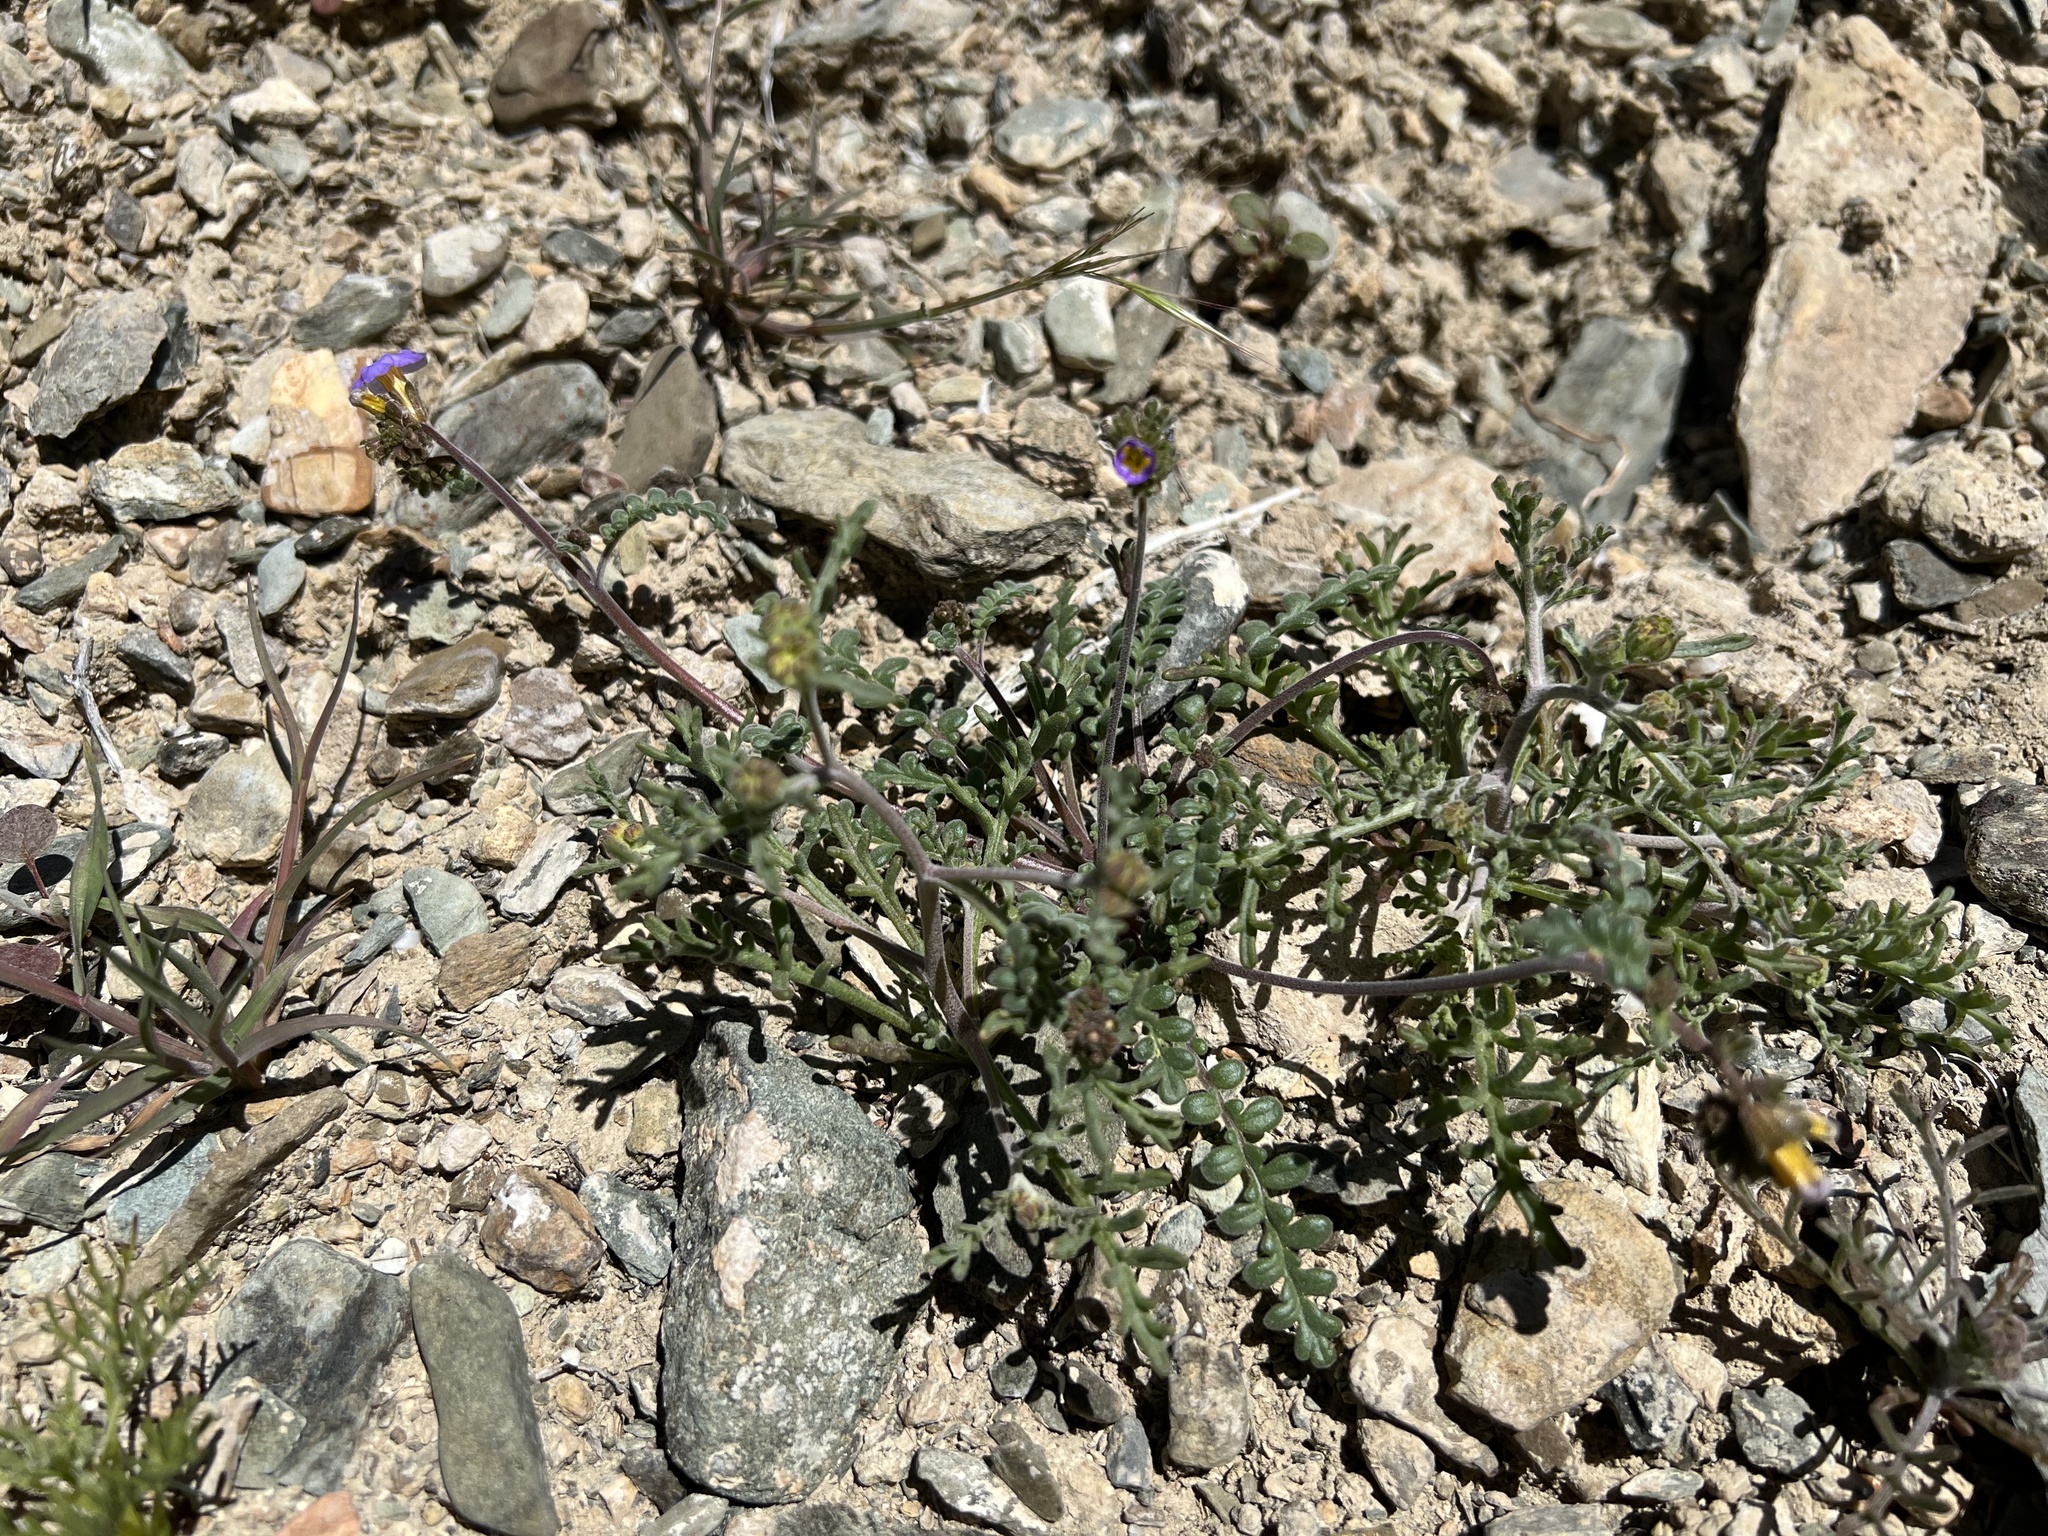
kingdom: Plantae
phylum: Tracheophyta
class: Magnoliopsida
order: Boraginales
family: Hydrophyllaceae
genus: Phacelia
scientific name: Phacelia fremontii
